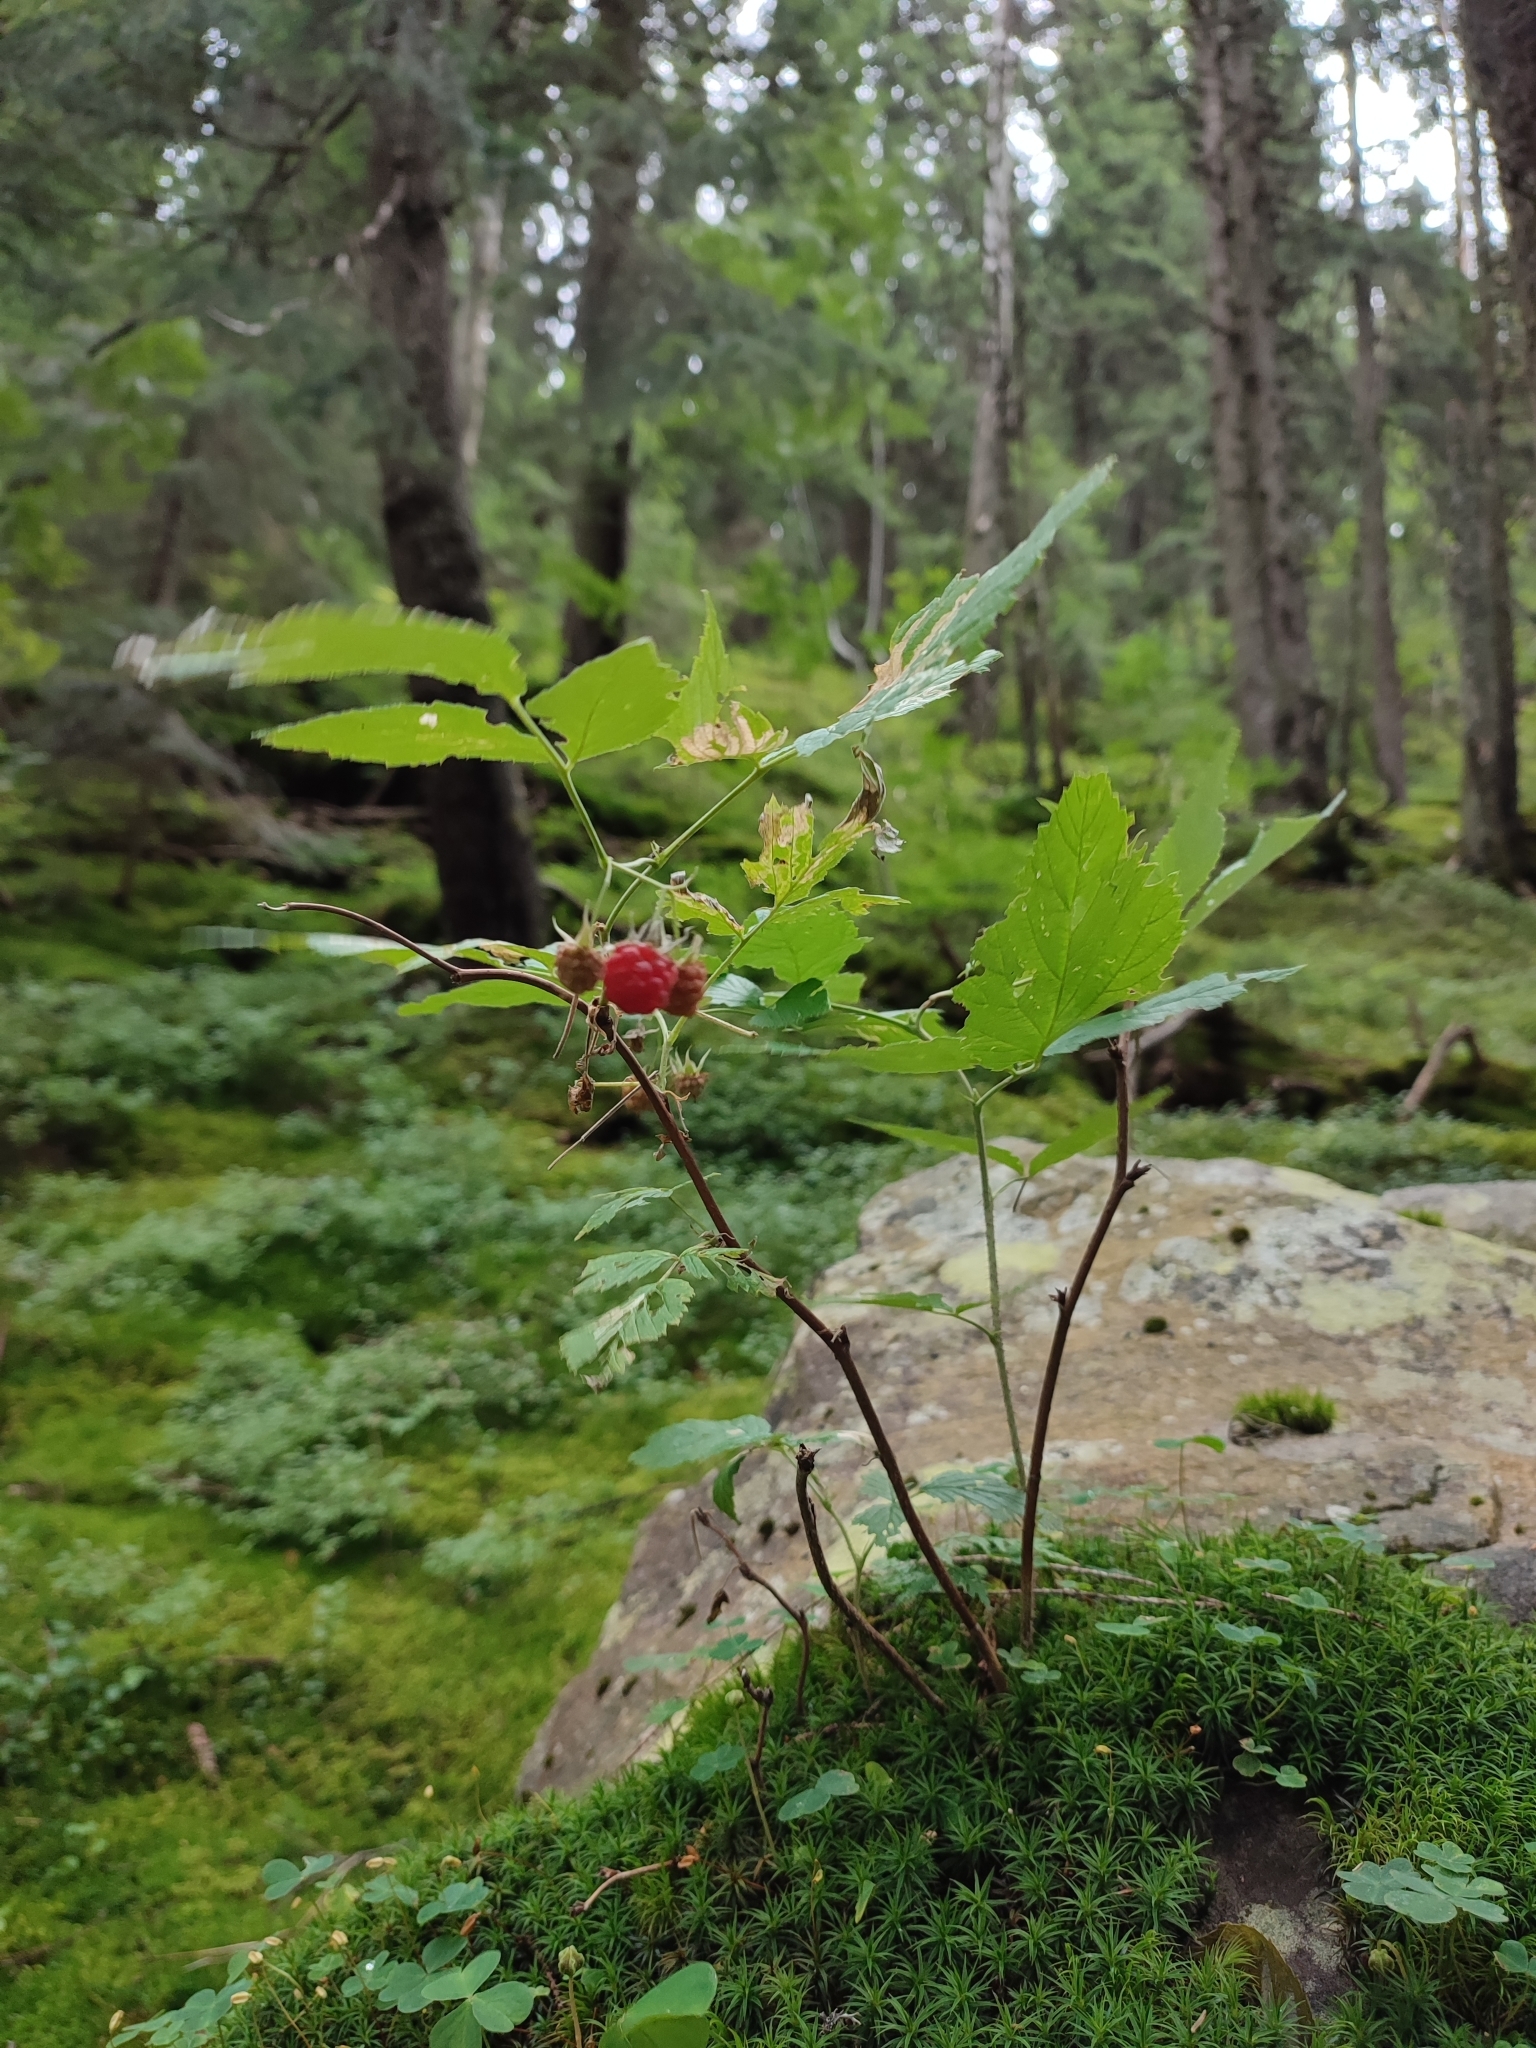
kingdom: Plantae
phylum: Tracheophyta
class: Magnoliopsida
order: Rosales
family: Rosaceae
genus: Rubus
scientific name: Rubus idaeus
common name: Raspberry
